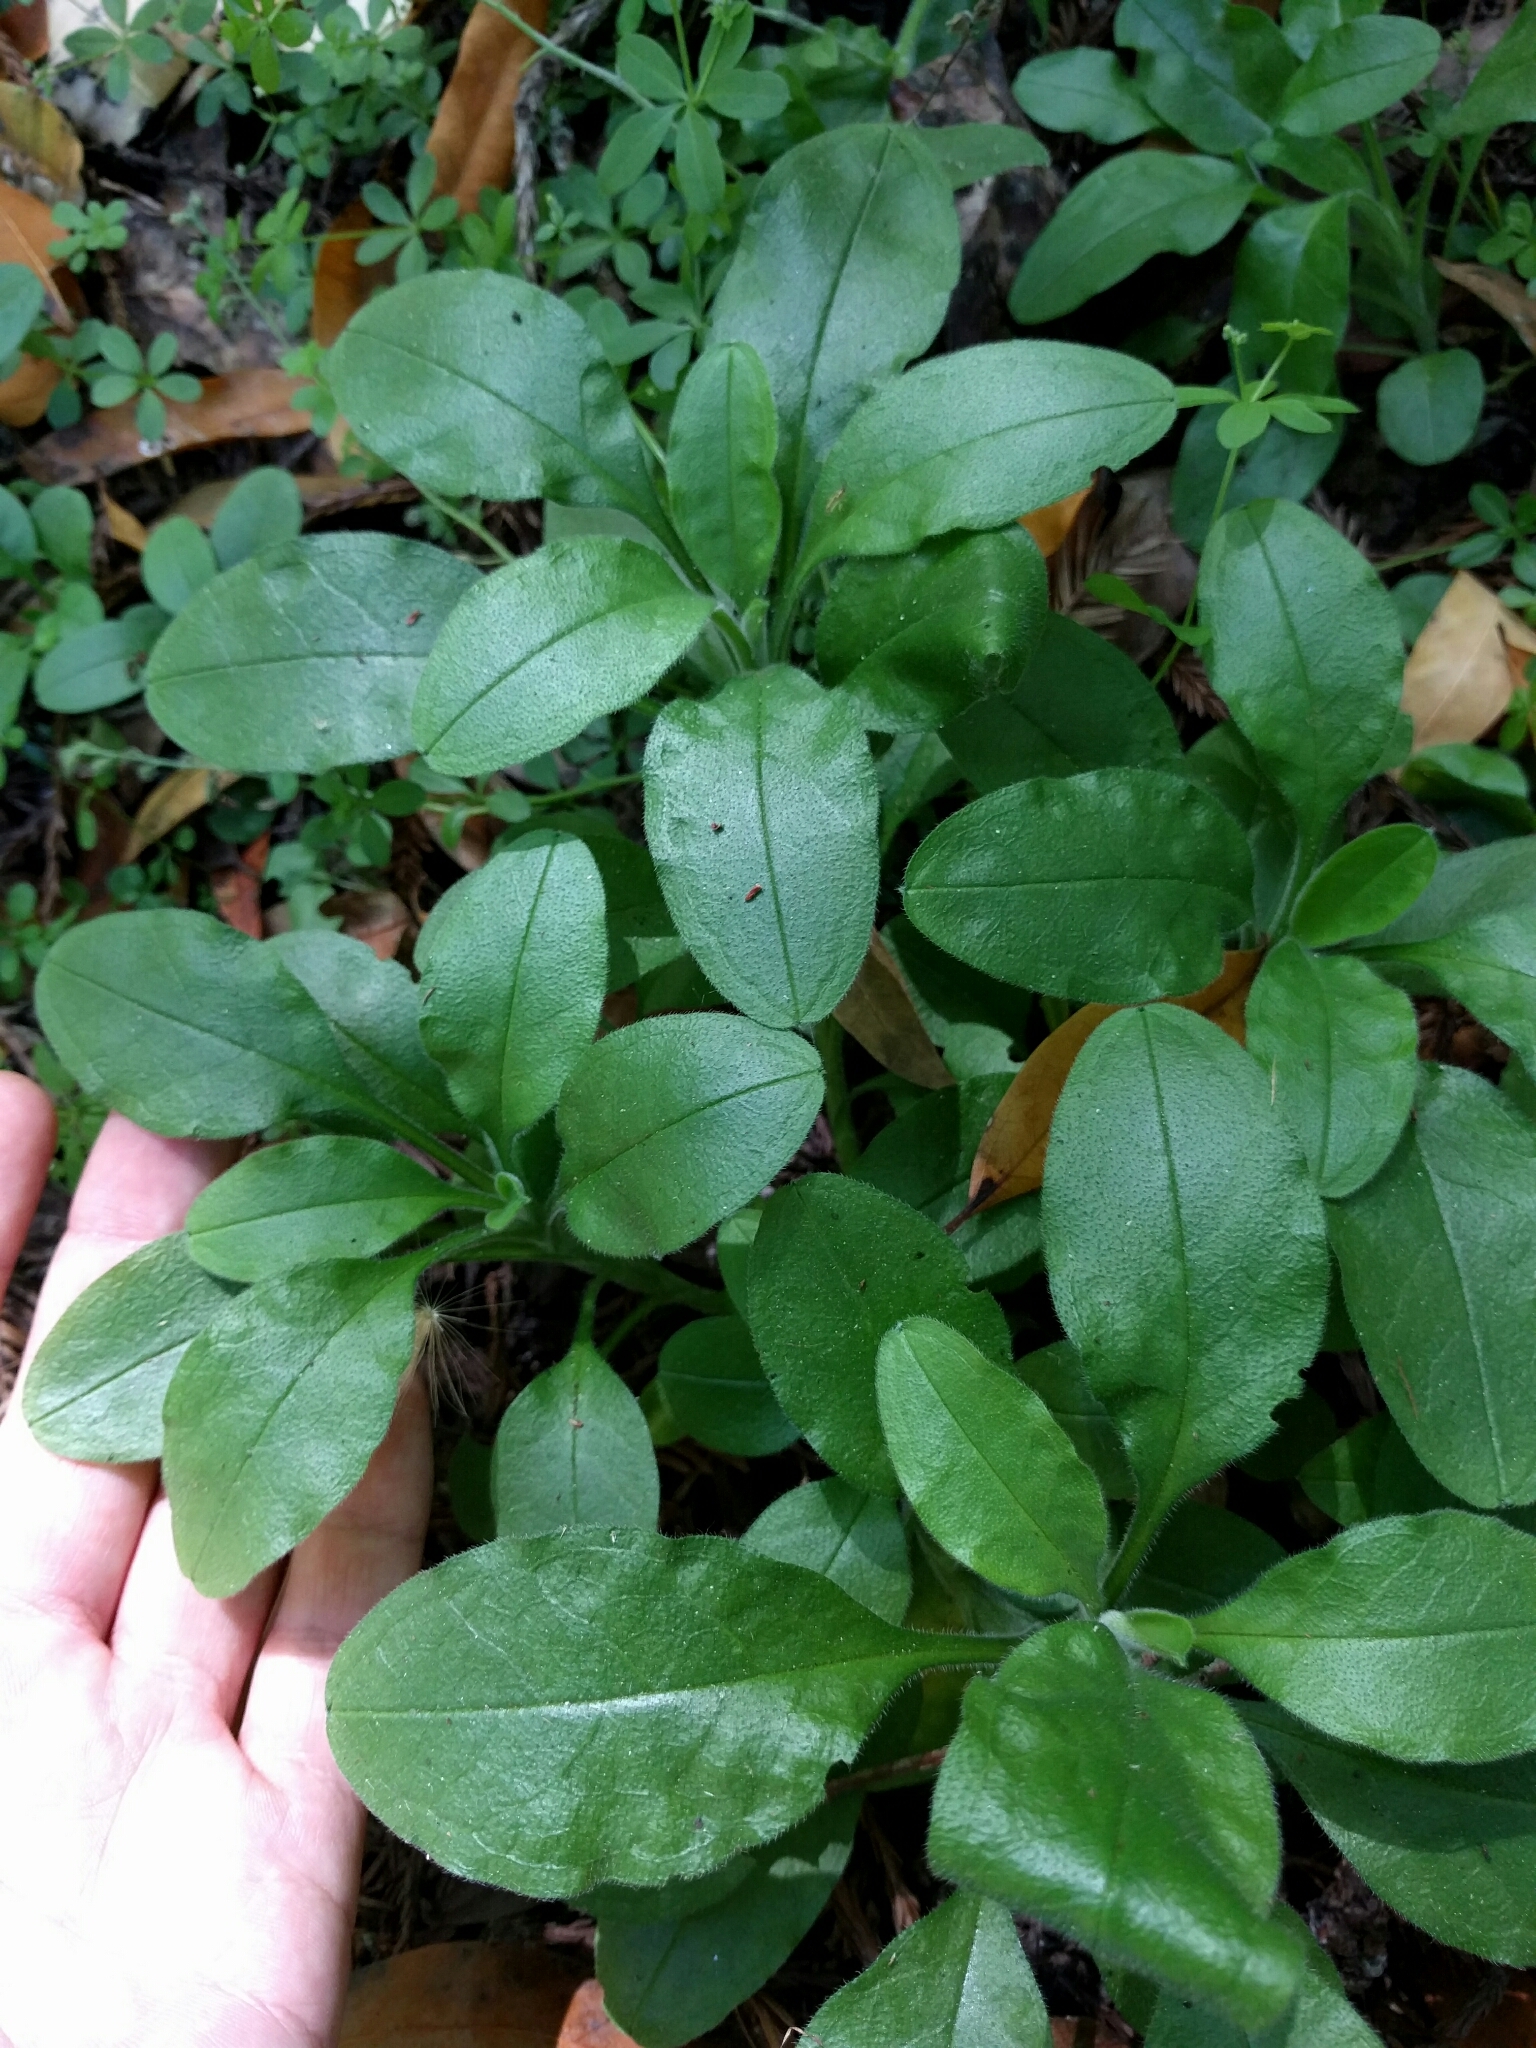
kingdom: Plantae
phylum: Tracheophyta
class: Magnoliopsida
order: Boraginales
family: Boraginaceae
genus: Myosotis
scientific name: Myosotis latifolia
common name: Broadleaf forget-me-not
